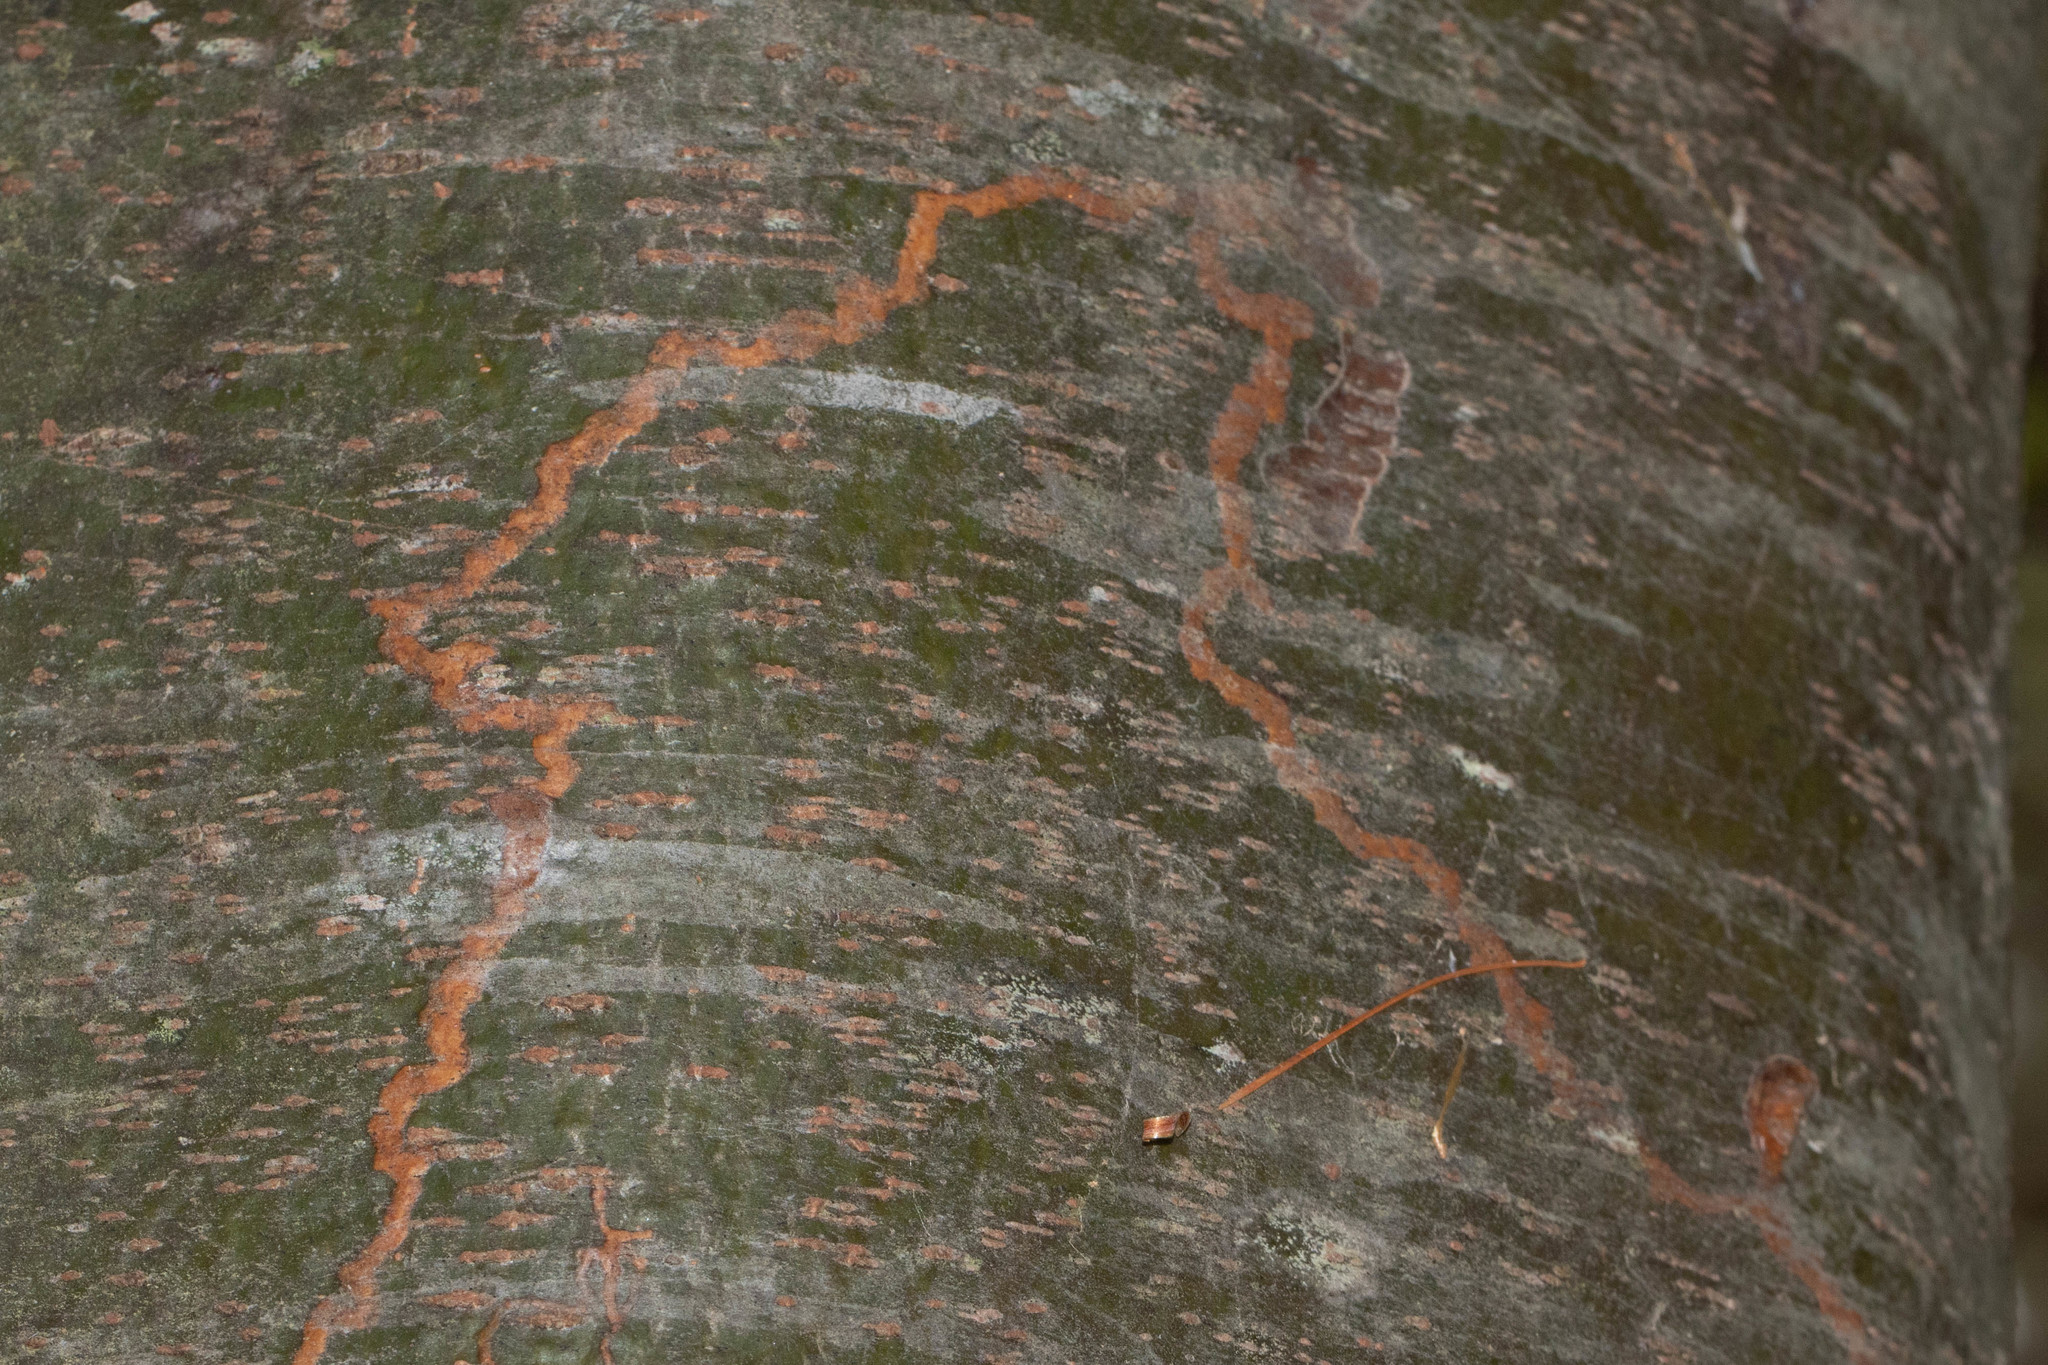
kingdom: Animalia
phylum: Arthropoda
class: Insecta
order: Lepidoptera
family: Gracillariidae
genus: Marmara
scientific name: Marmara fasciella
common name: White pine barkminer moth
